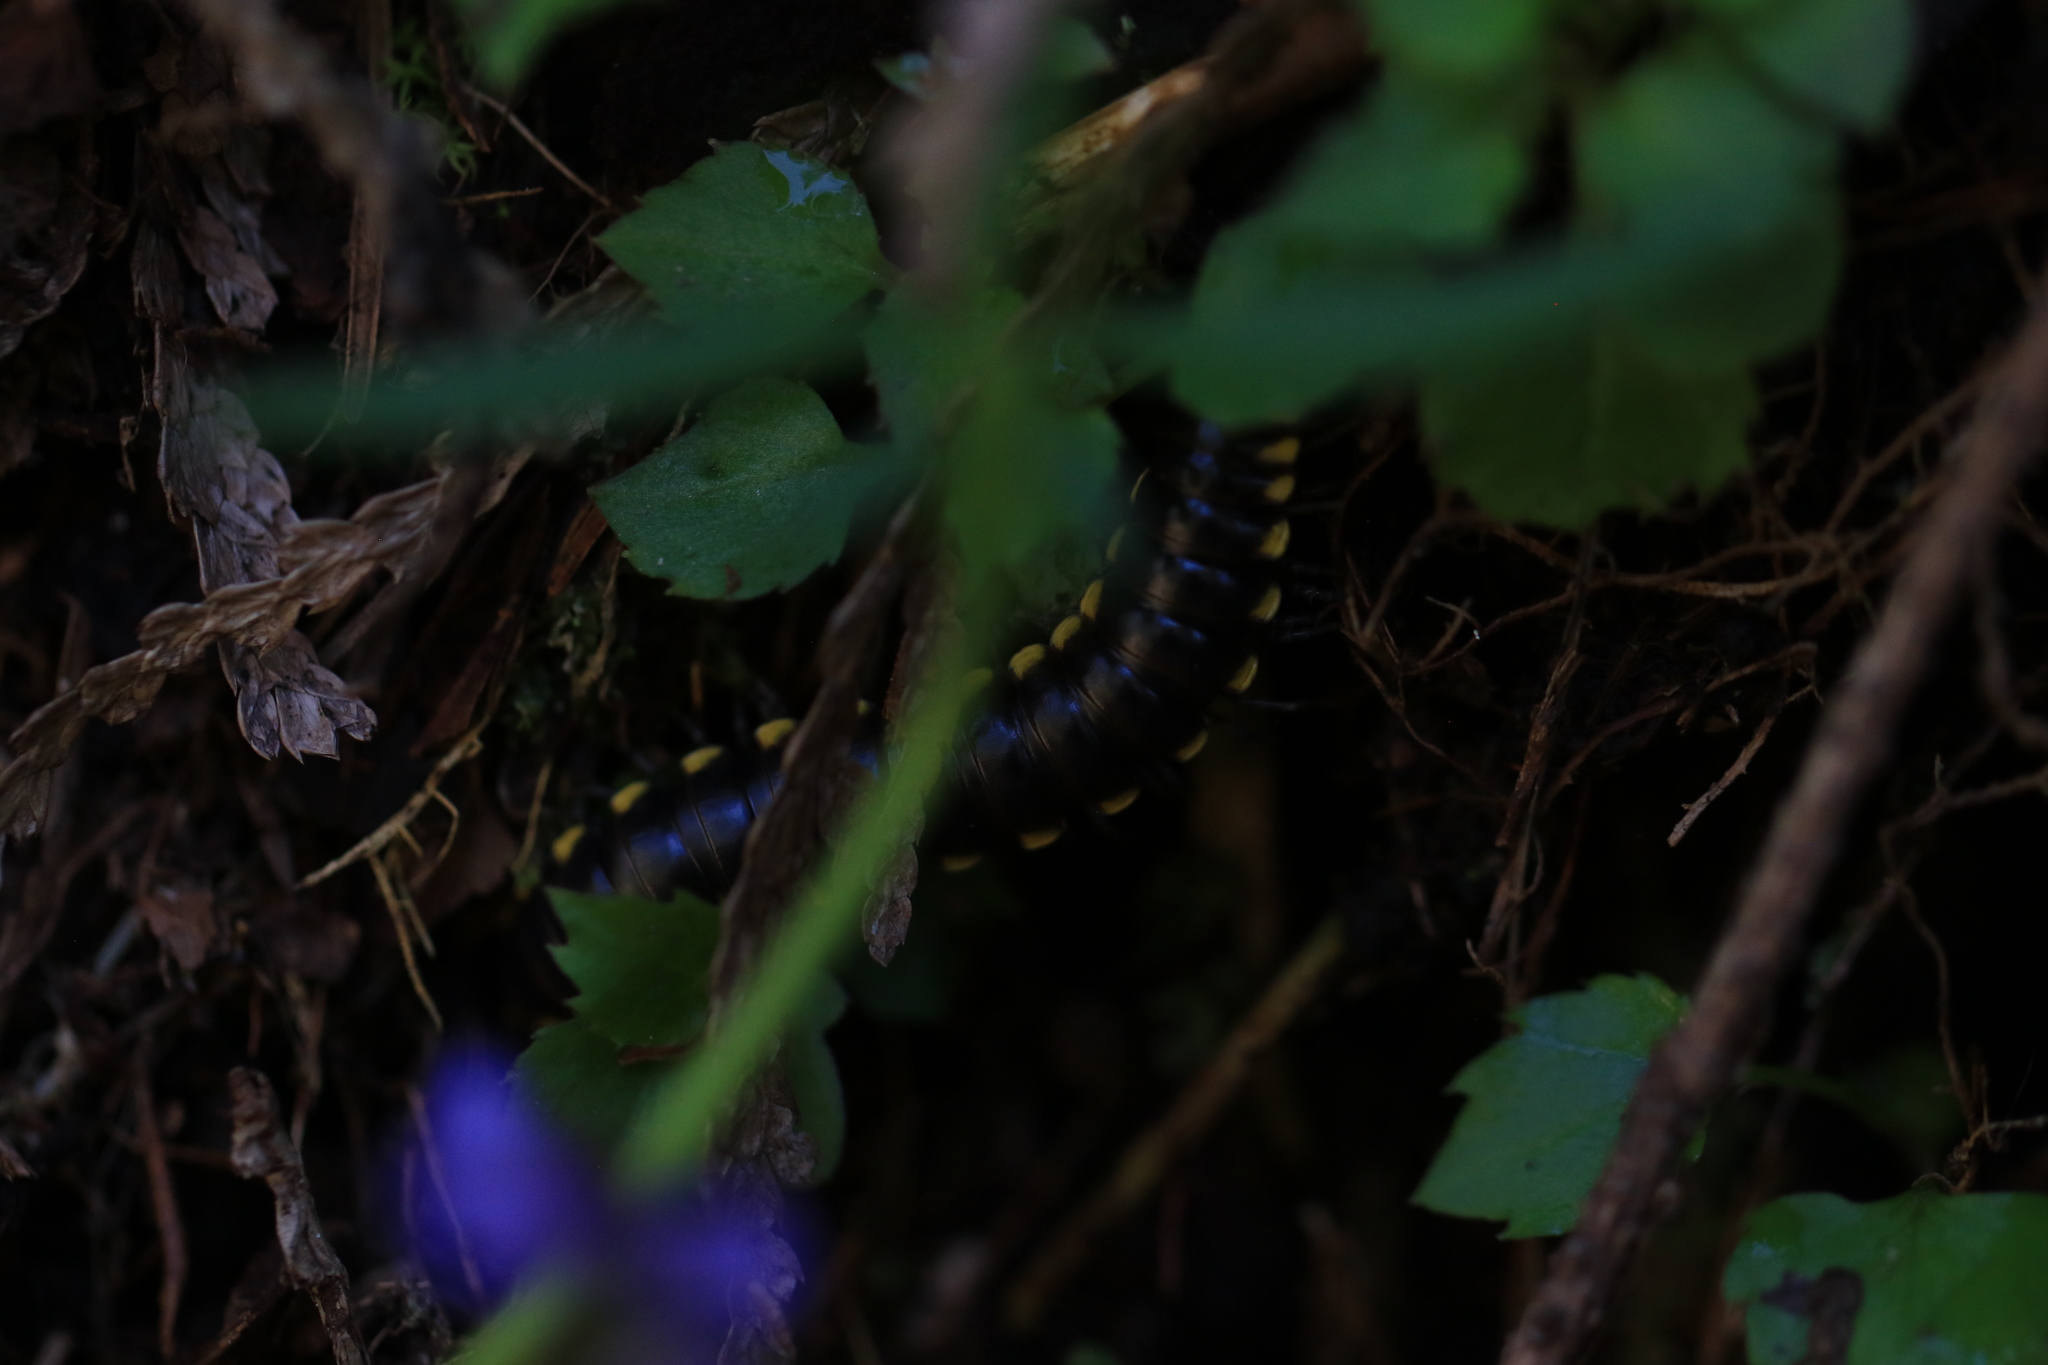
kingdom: Animalia
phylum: Arthropoda
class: Diplopoda
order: Polydesmida
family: Xystodesmidae
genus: Harpaphe
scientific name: Harpaphe haydeniana
